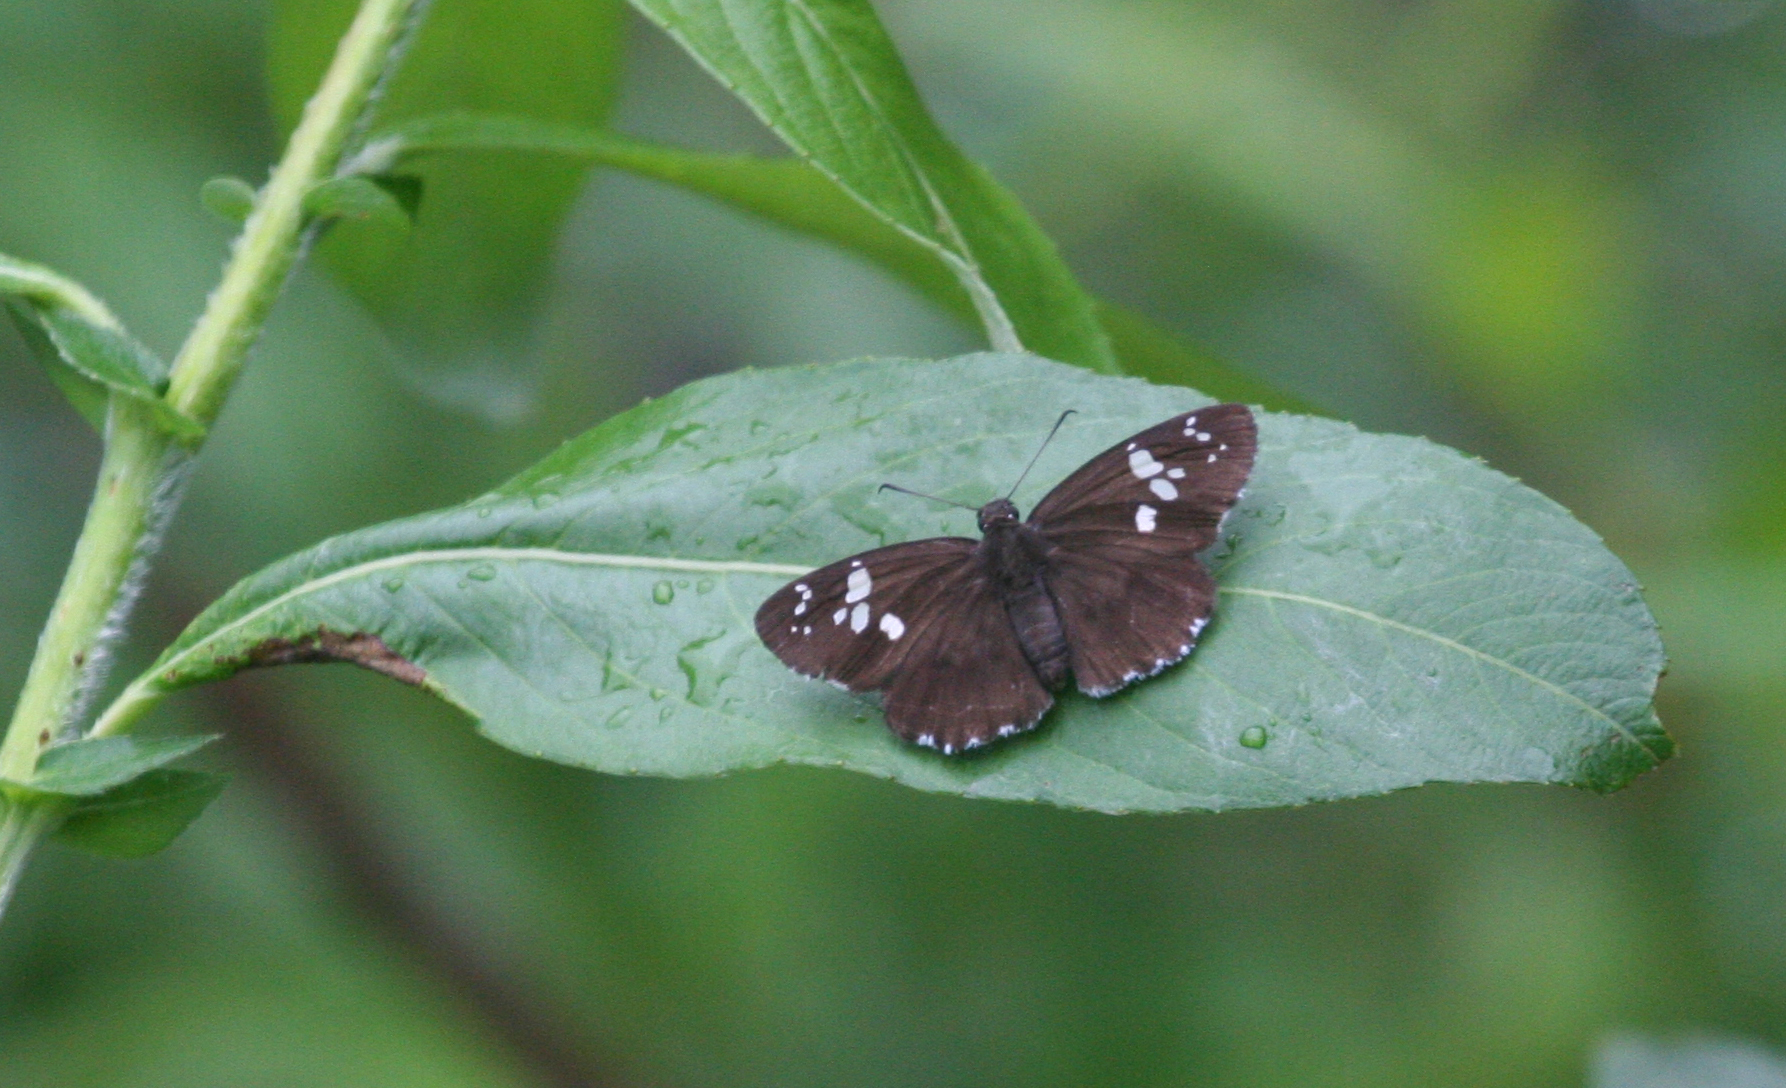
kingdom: Animalia
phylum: Arthropoda
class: Insecta
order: Lepidoptera
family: Hesperiidae
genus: Daimio
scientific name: Daimio tethys
